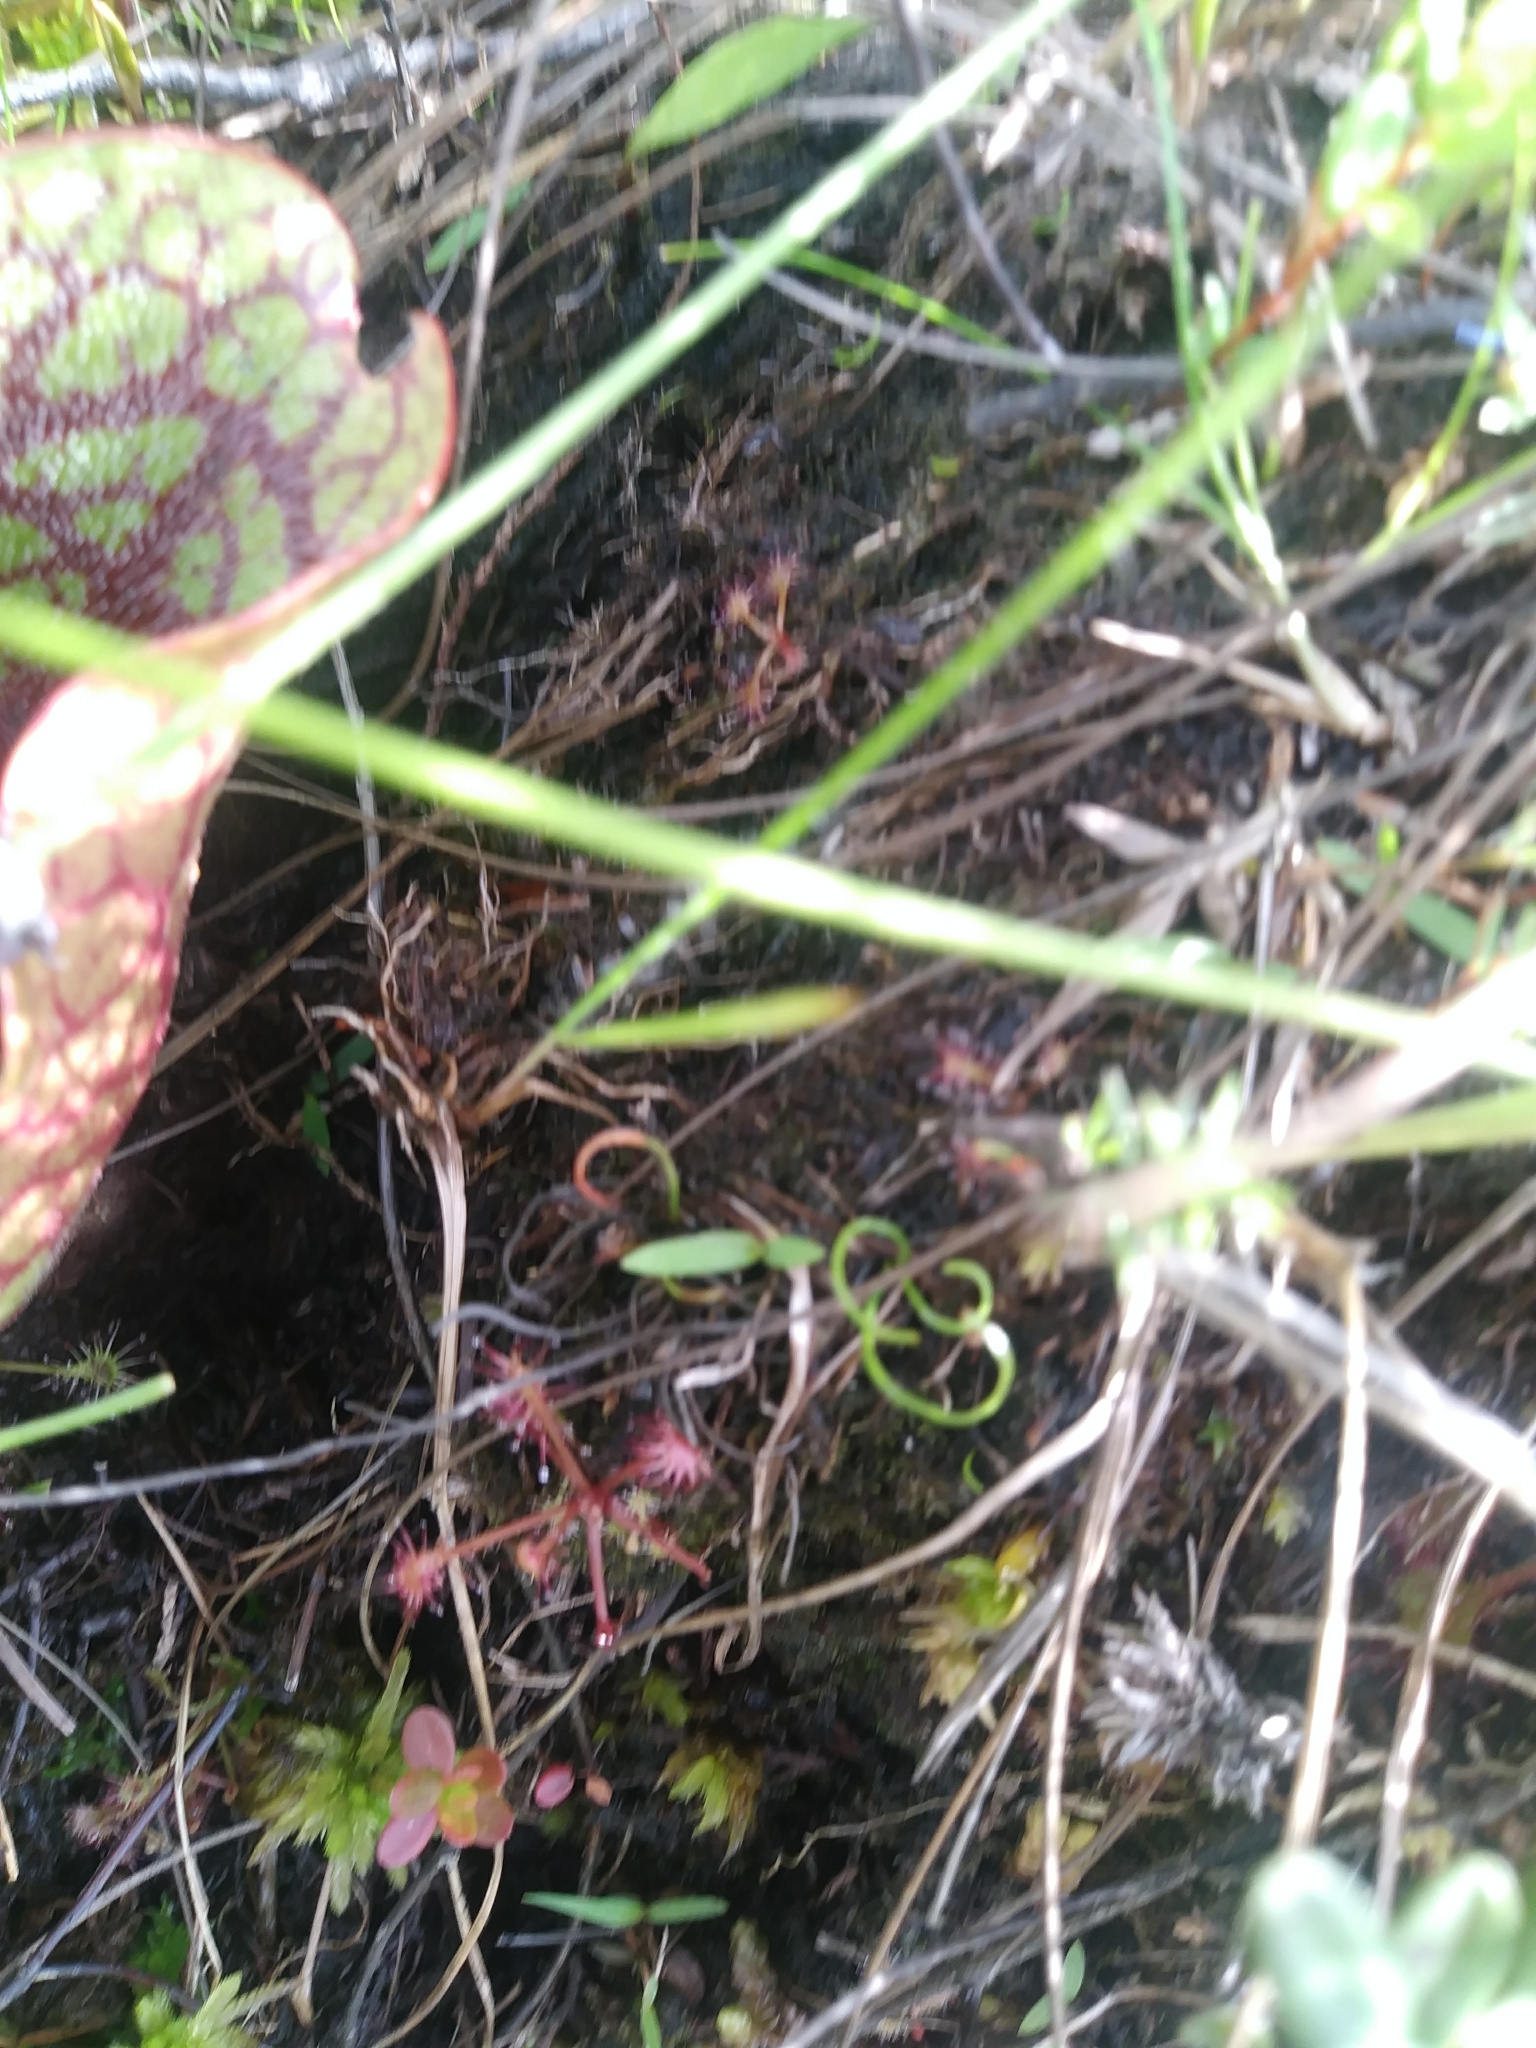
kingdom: Plantae
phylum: Tracheophyta
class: Polypodiopsida
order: Schizaeales
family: Schizaeaceae
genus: Schizaea
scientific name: Schizaea pusilla
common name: Curly-grass fern
